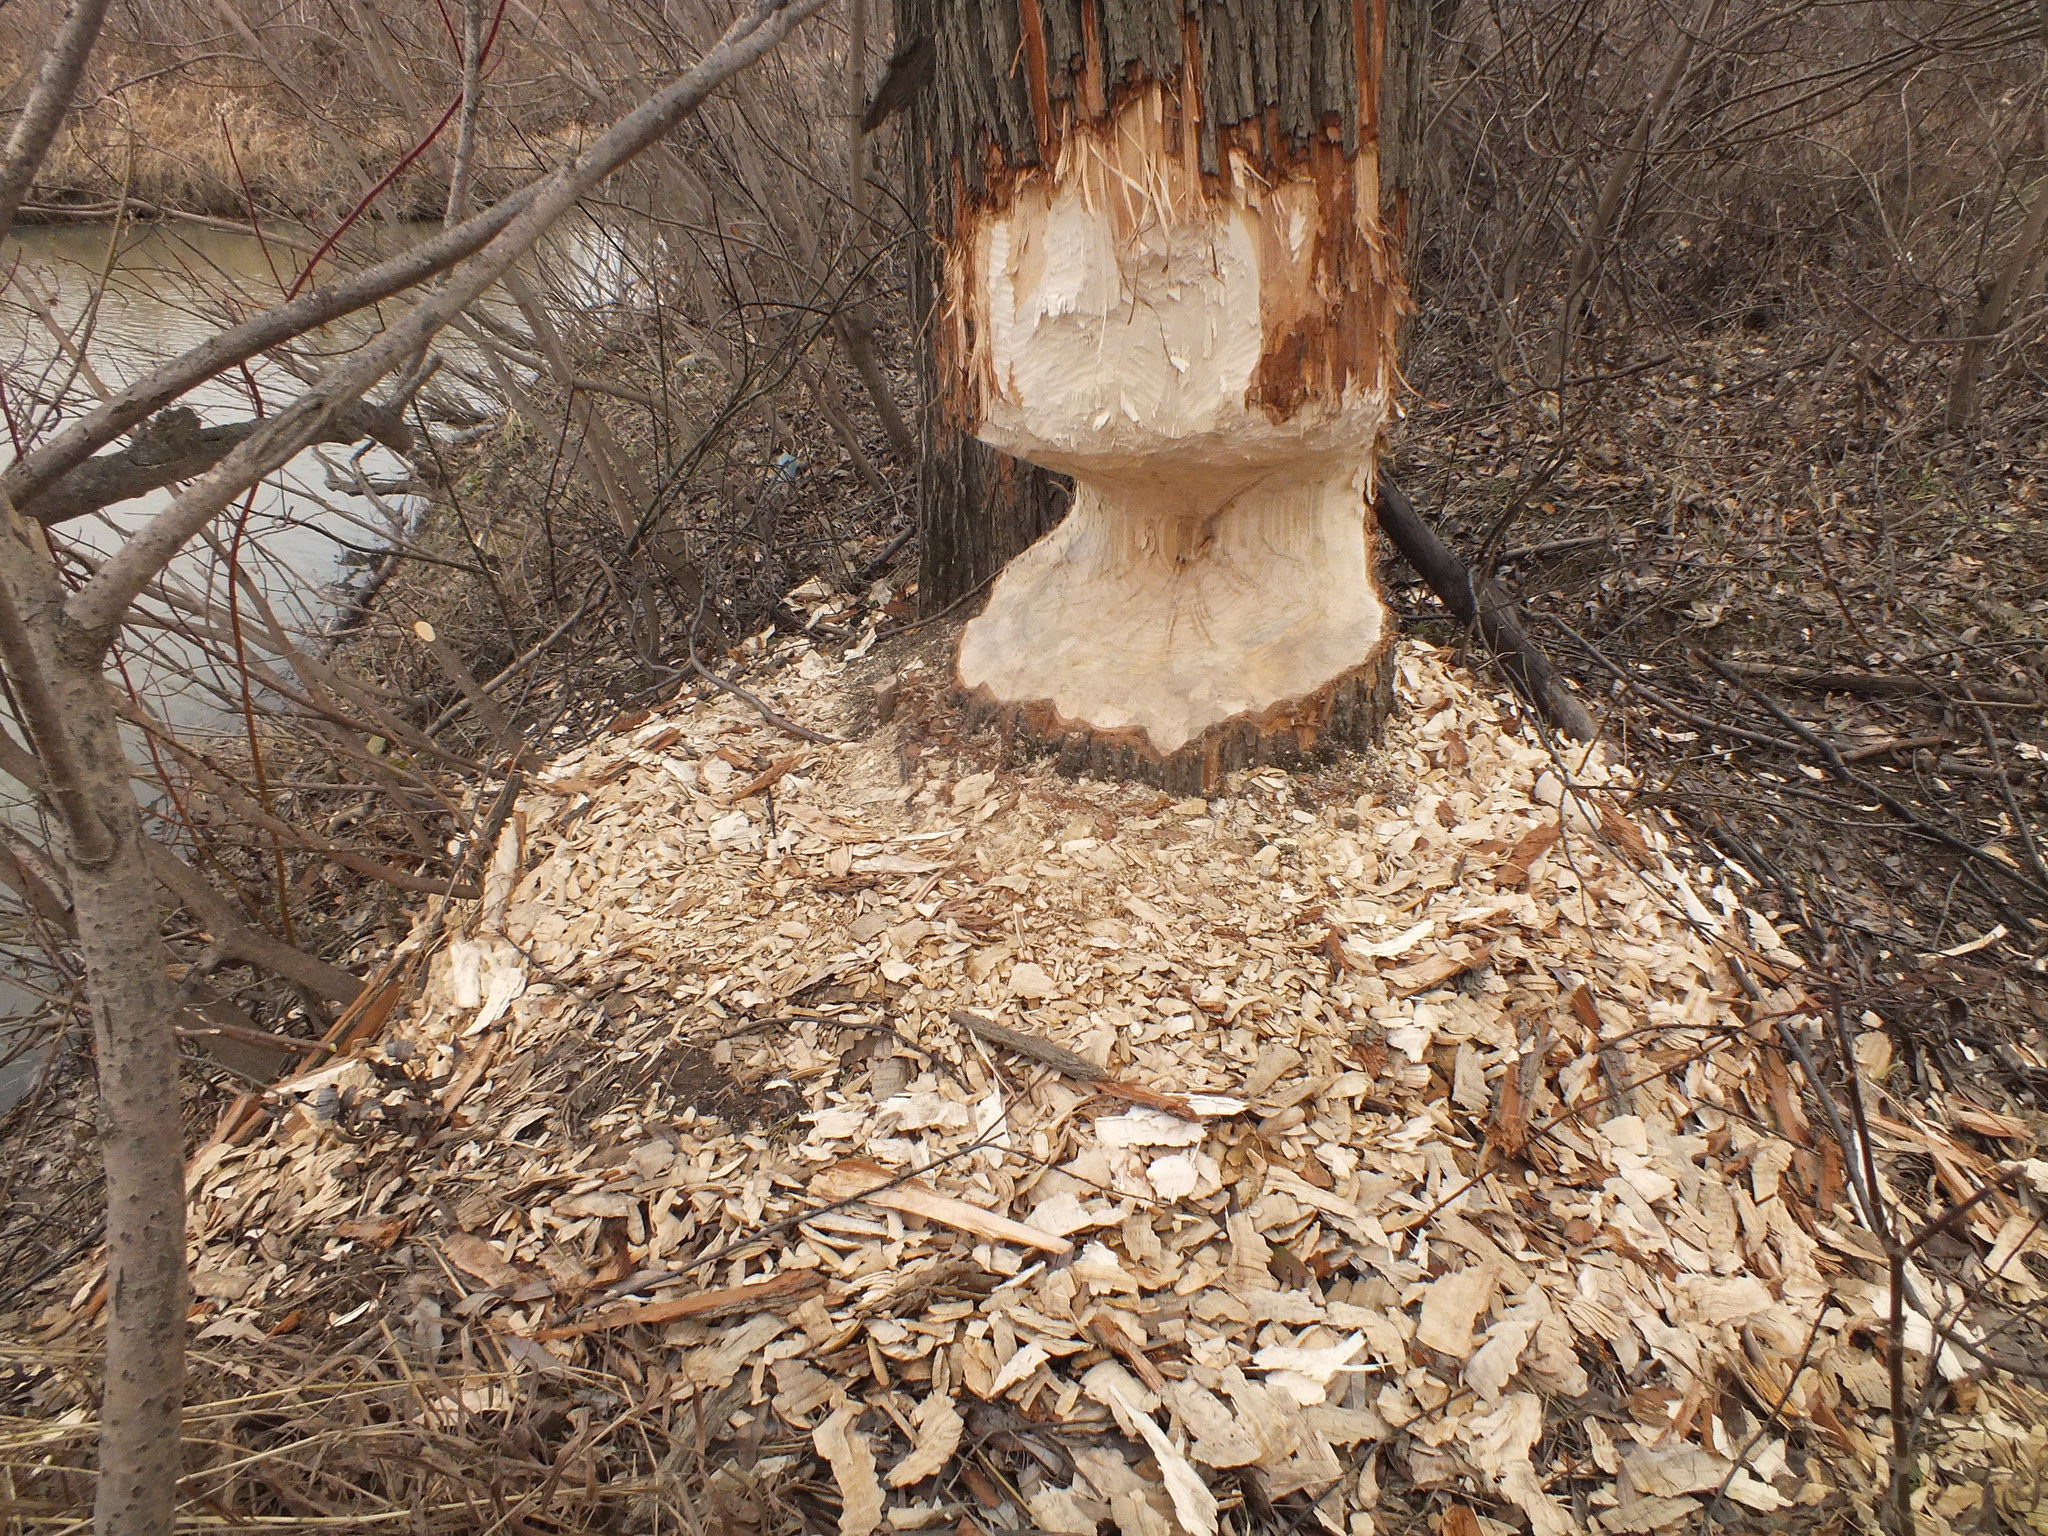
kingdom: Animalia
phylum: Chordata
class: Mammalia
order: Rodentia
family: Castoridae
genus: Castor
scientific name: Castor fiber
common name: Eurasian beaver
